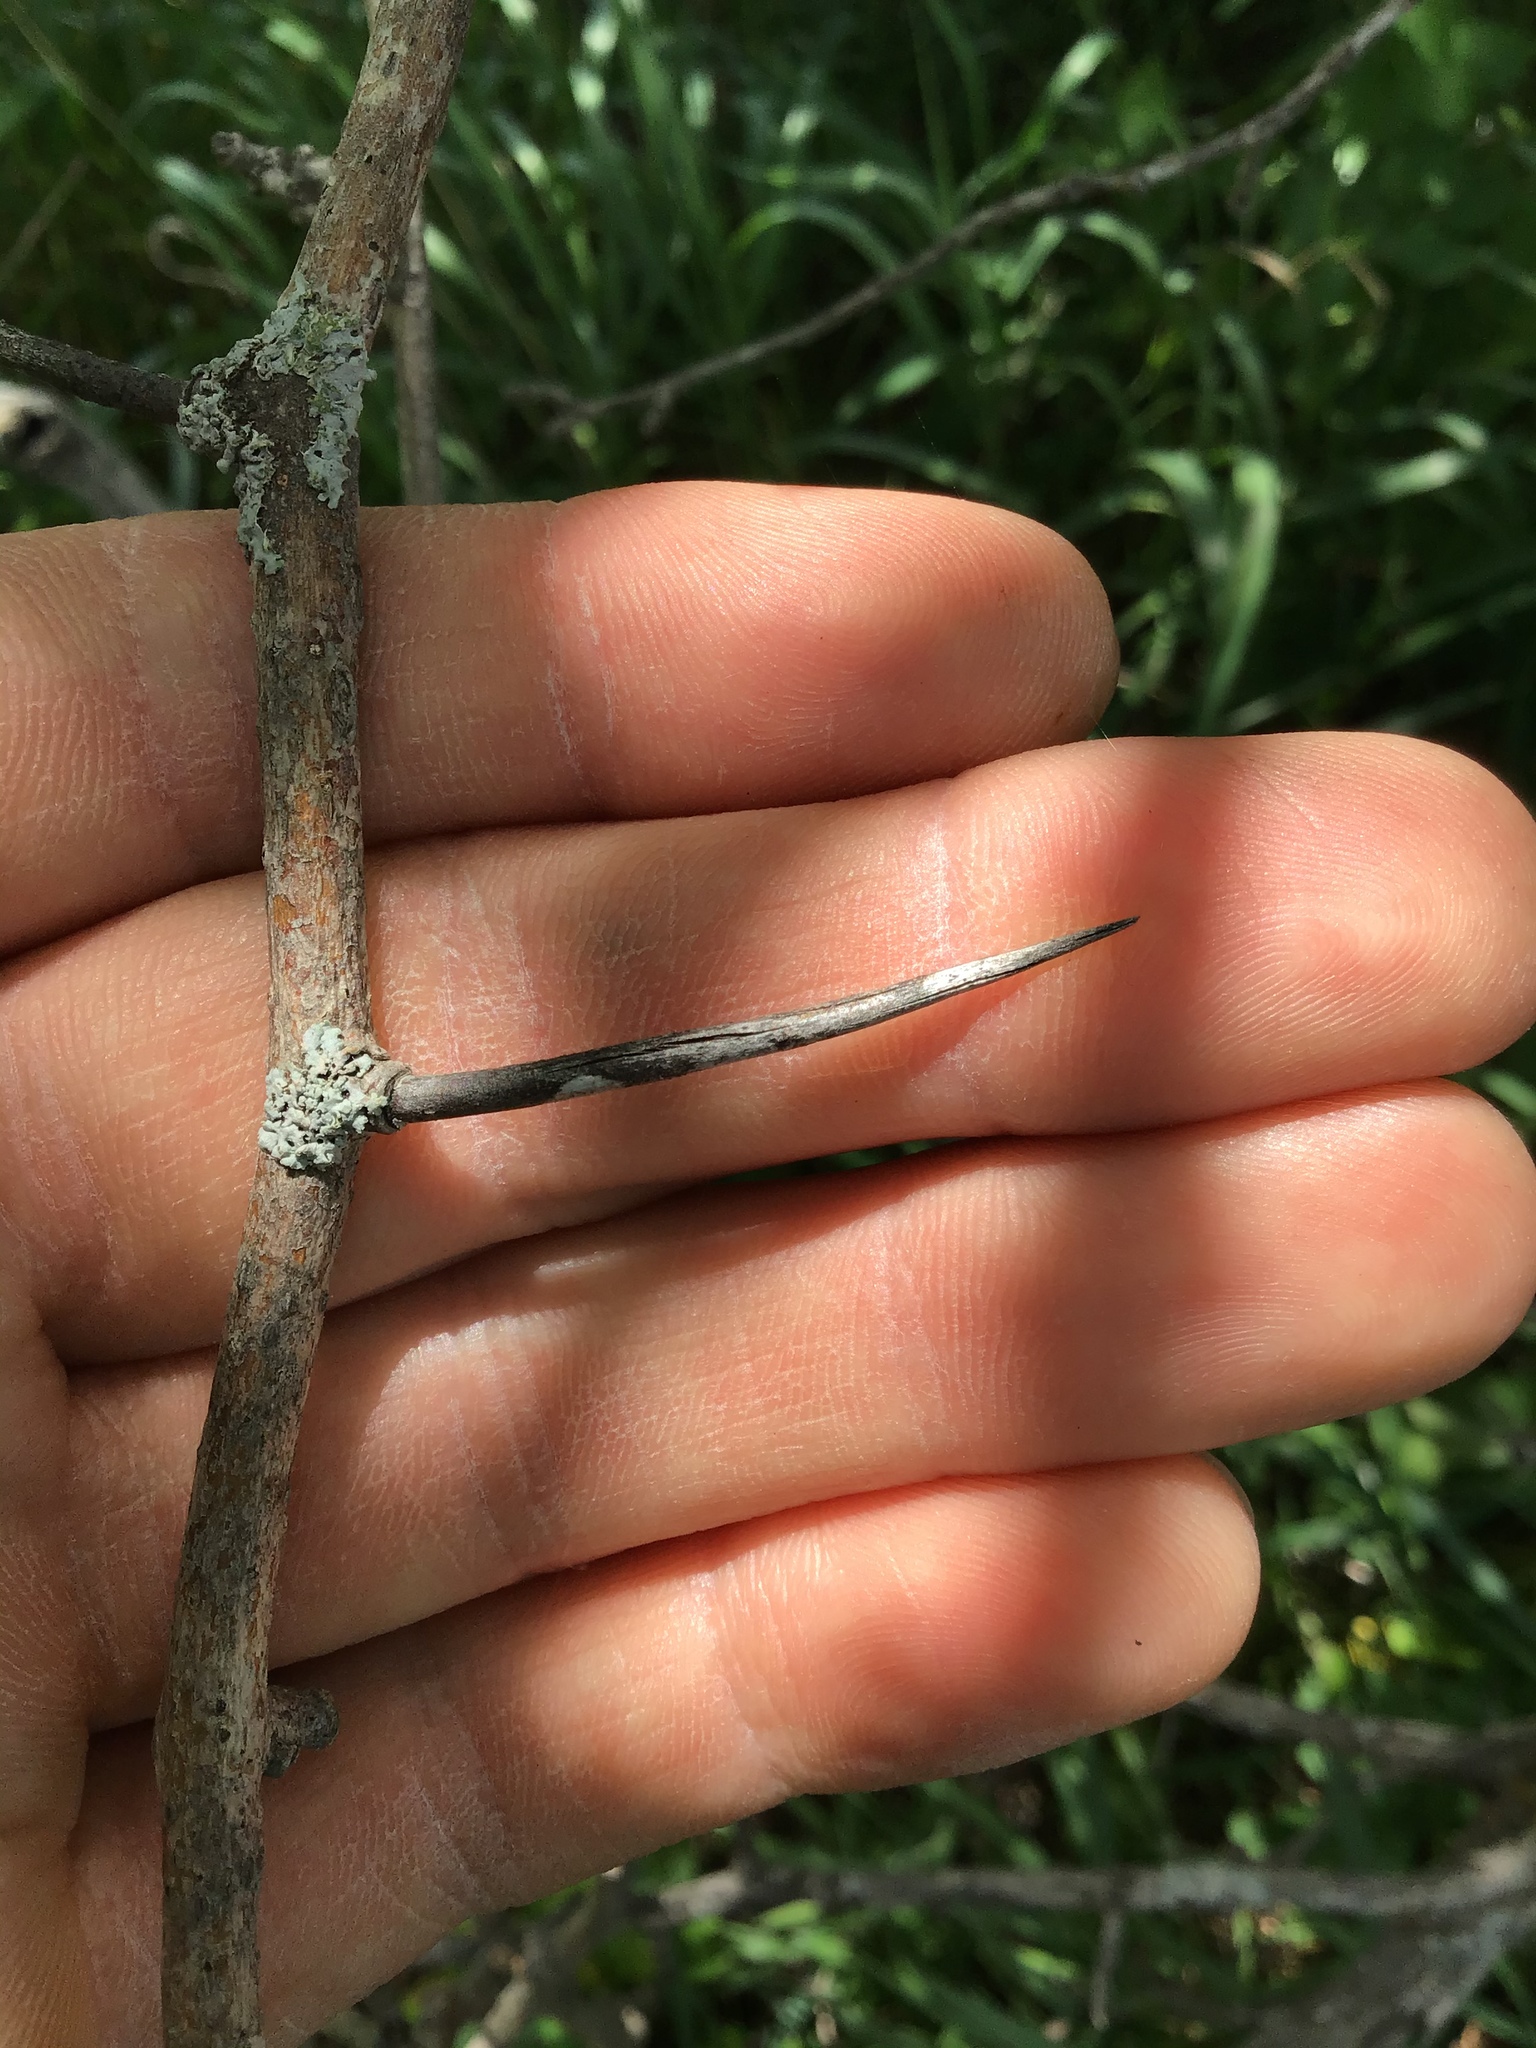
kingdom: Plantae
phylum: Tracheophyta
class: Magnoliopsida
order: Rosales
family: Rosaceae
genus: Crataegus
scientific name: Crataegus chrysocarpa
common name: Fire-berry hawthorn
